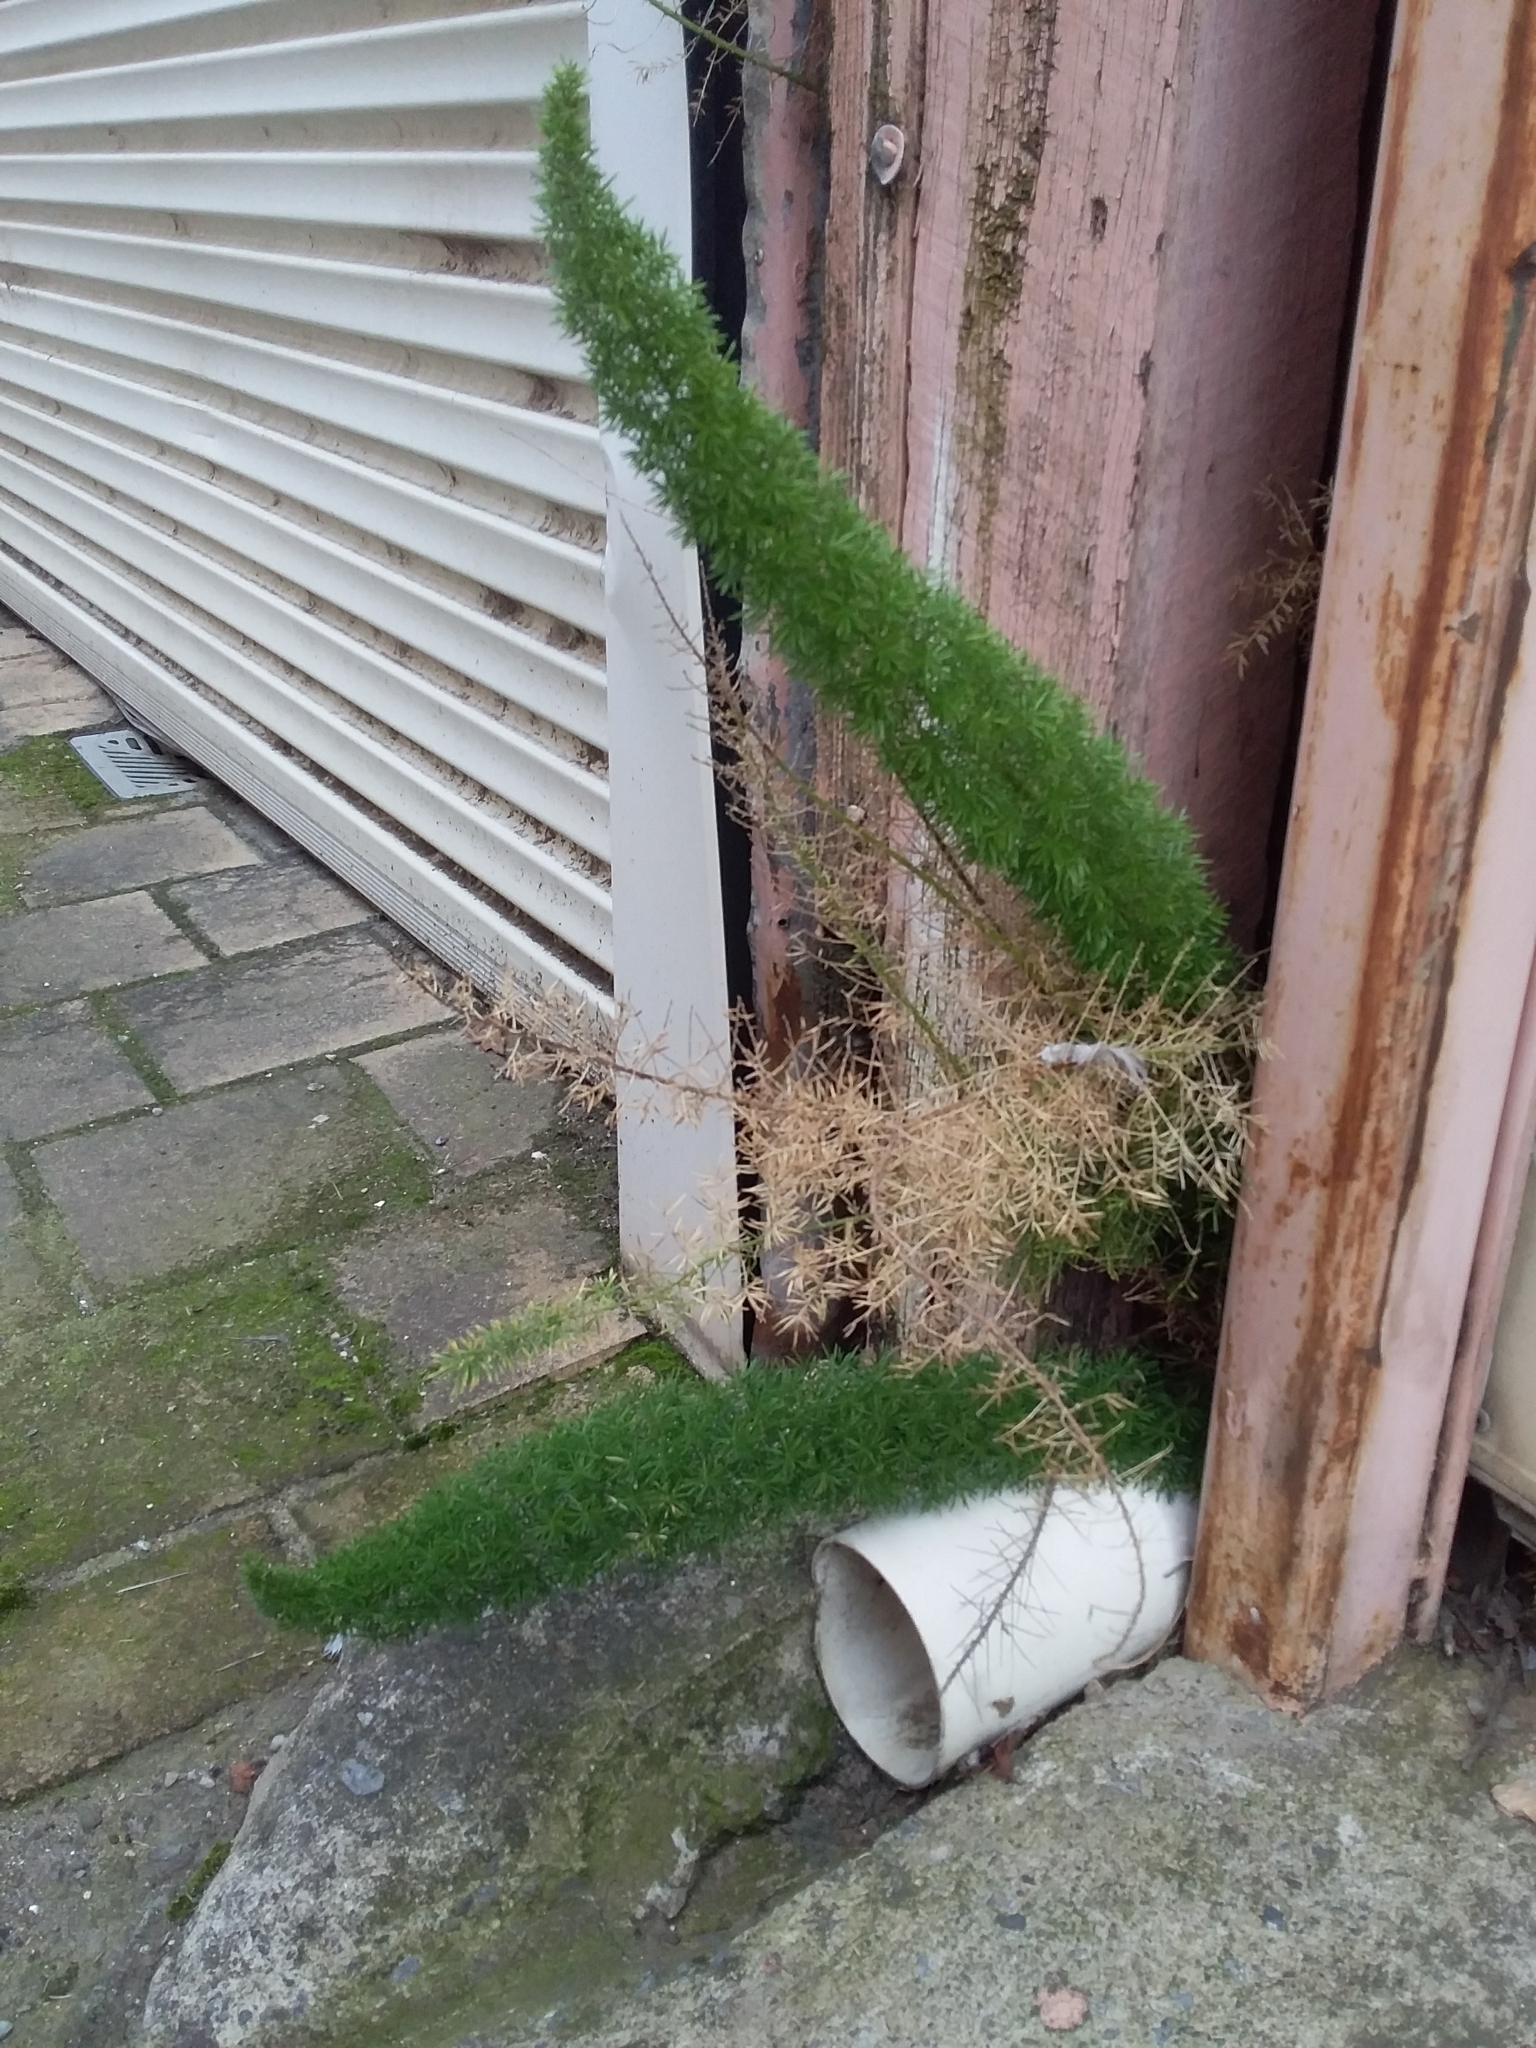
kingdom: Plantae
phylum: Tracheophyta
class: Liliopsida
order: Asparagales
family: Asparagaceae
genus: Asparagus
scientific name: Asparagus densiflorus
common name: Asparagus fern
